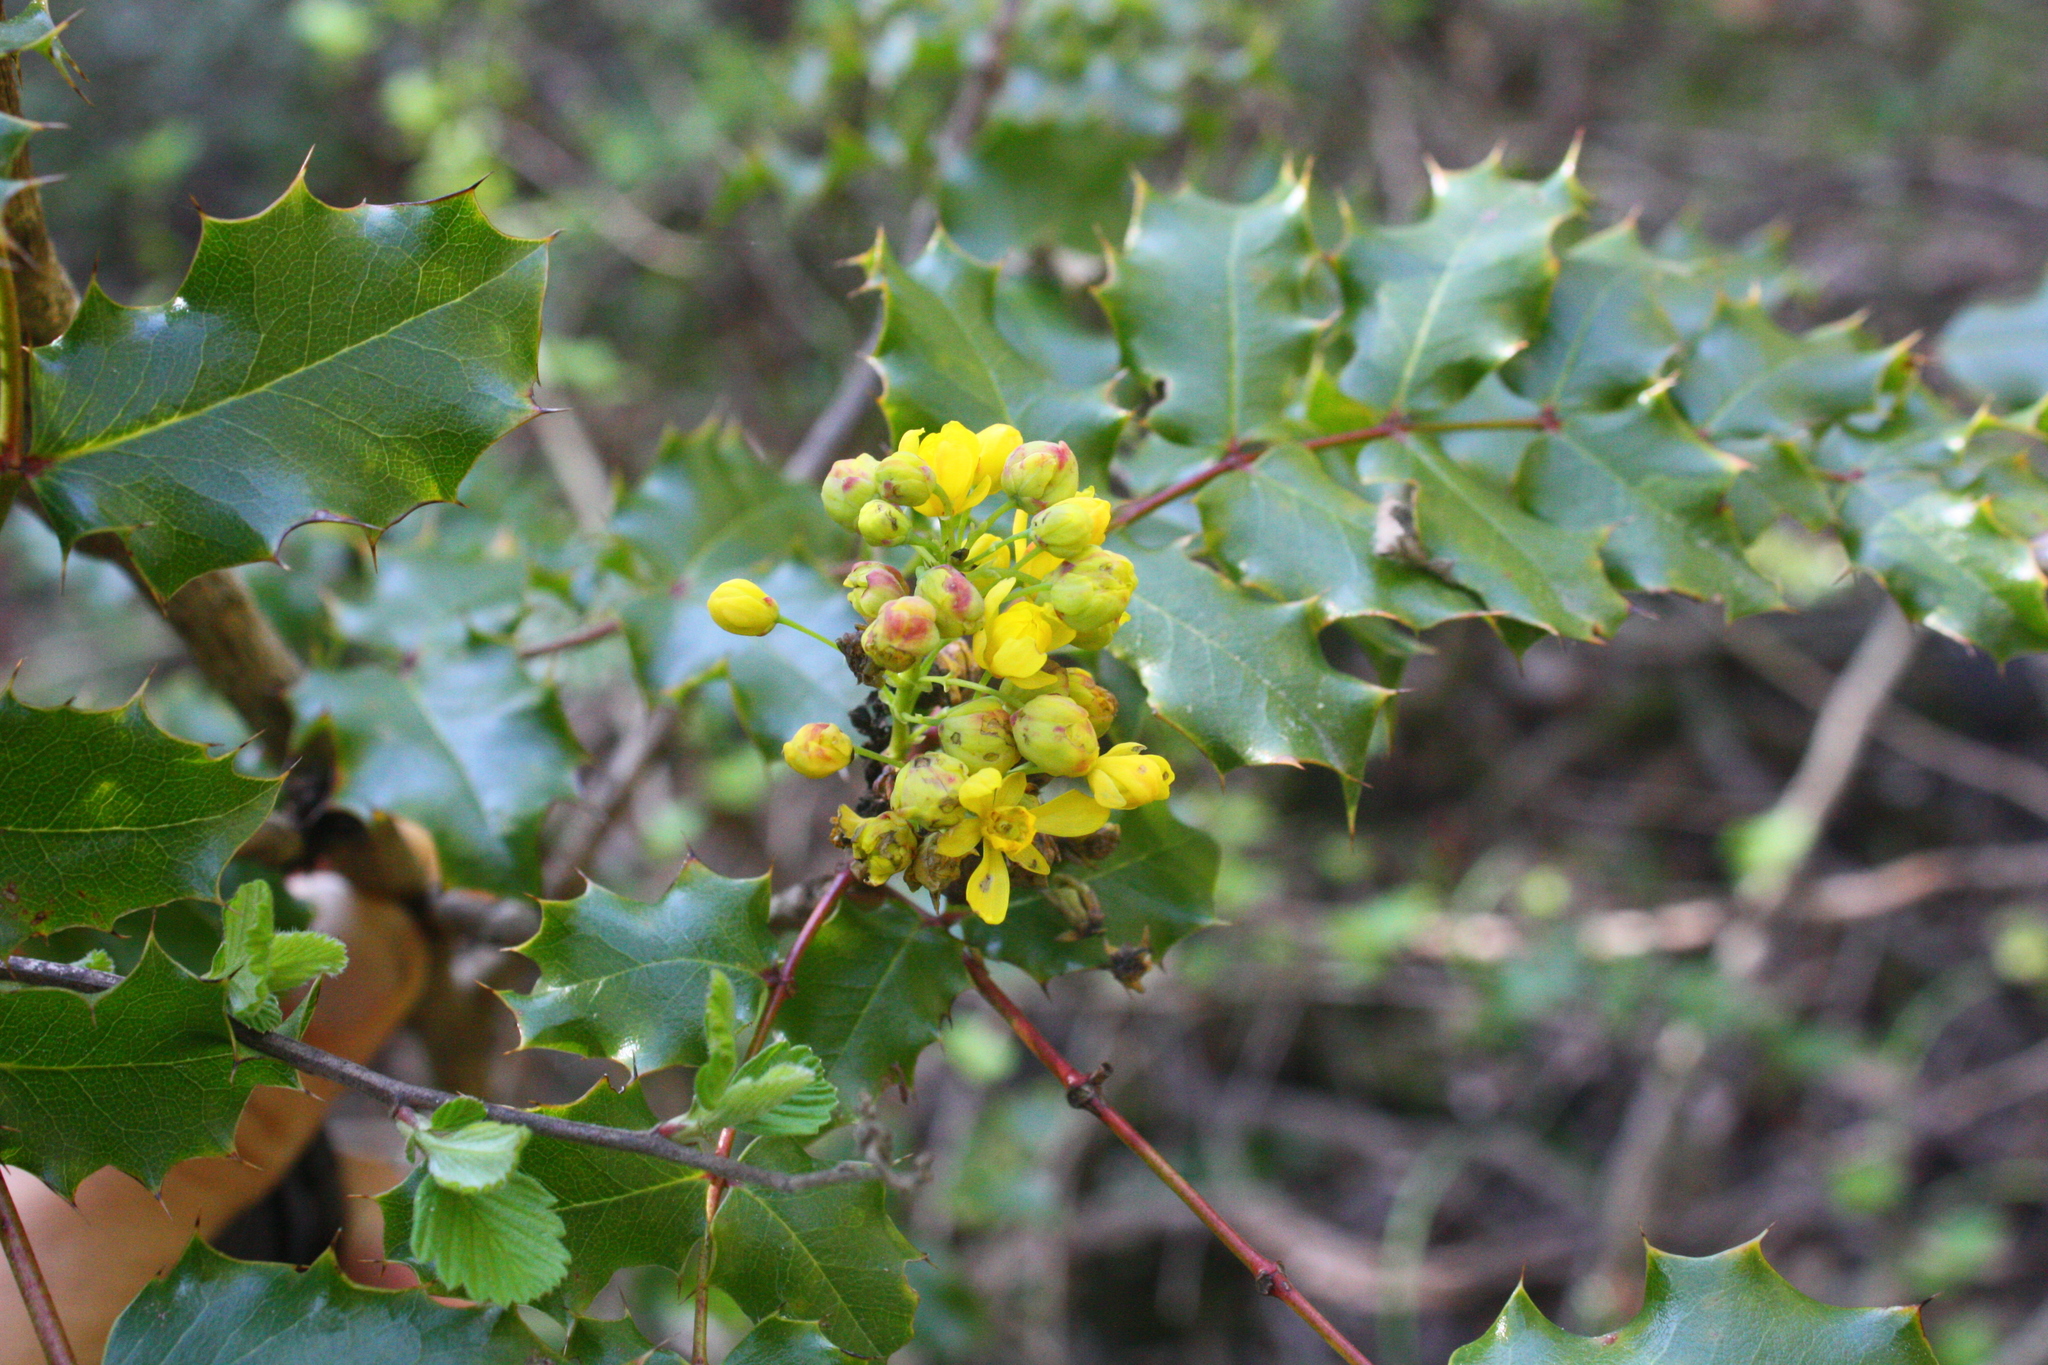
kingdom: Plantae
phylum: Tracheophyta
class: Magnoliopsida
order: Ranunculales
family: Berberidaceae
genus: Mahonia
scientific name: Mahonia
